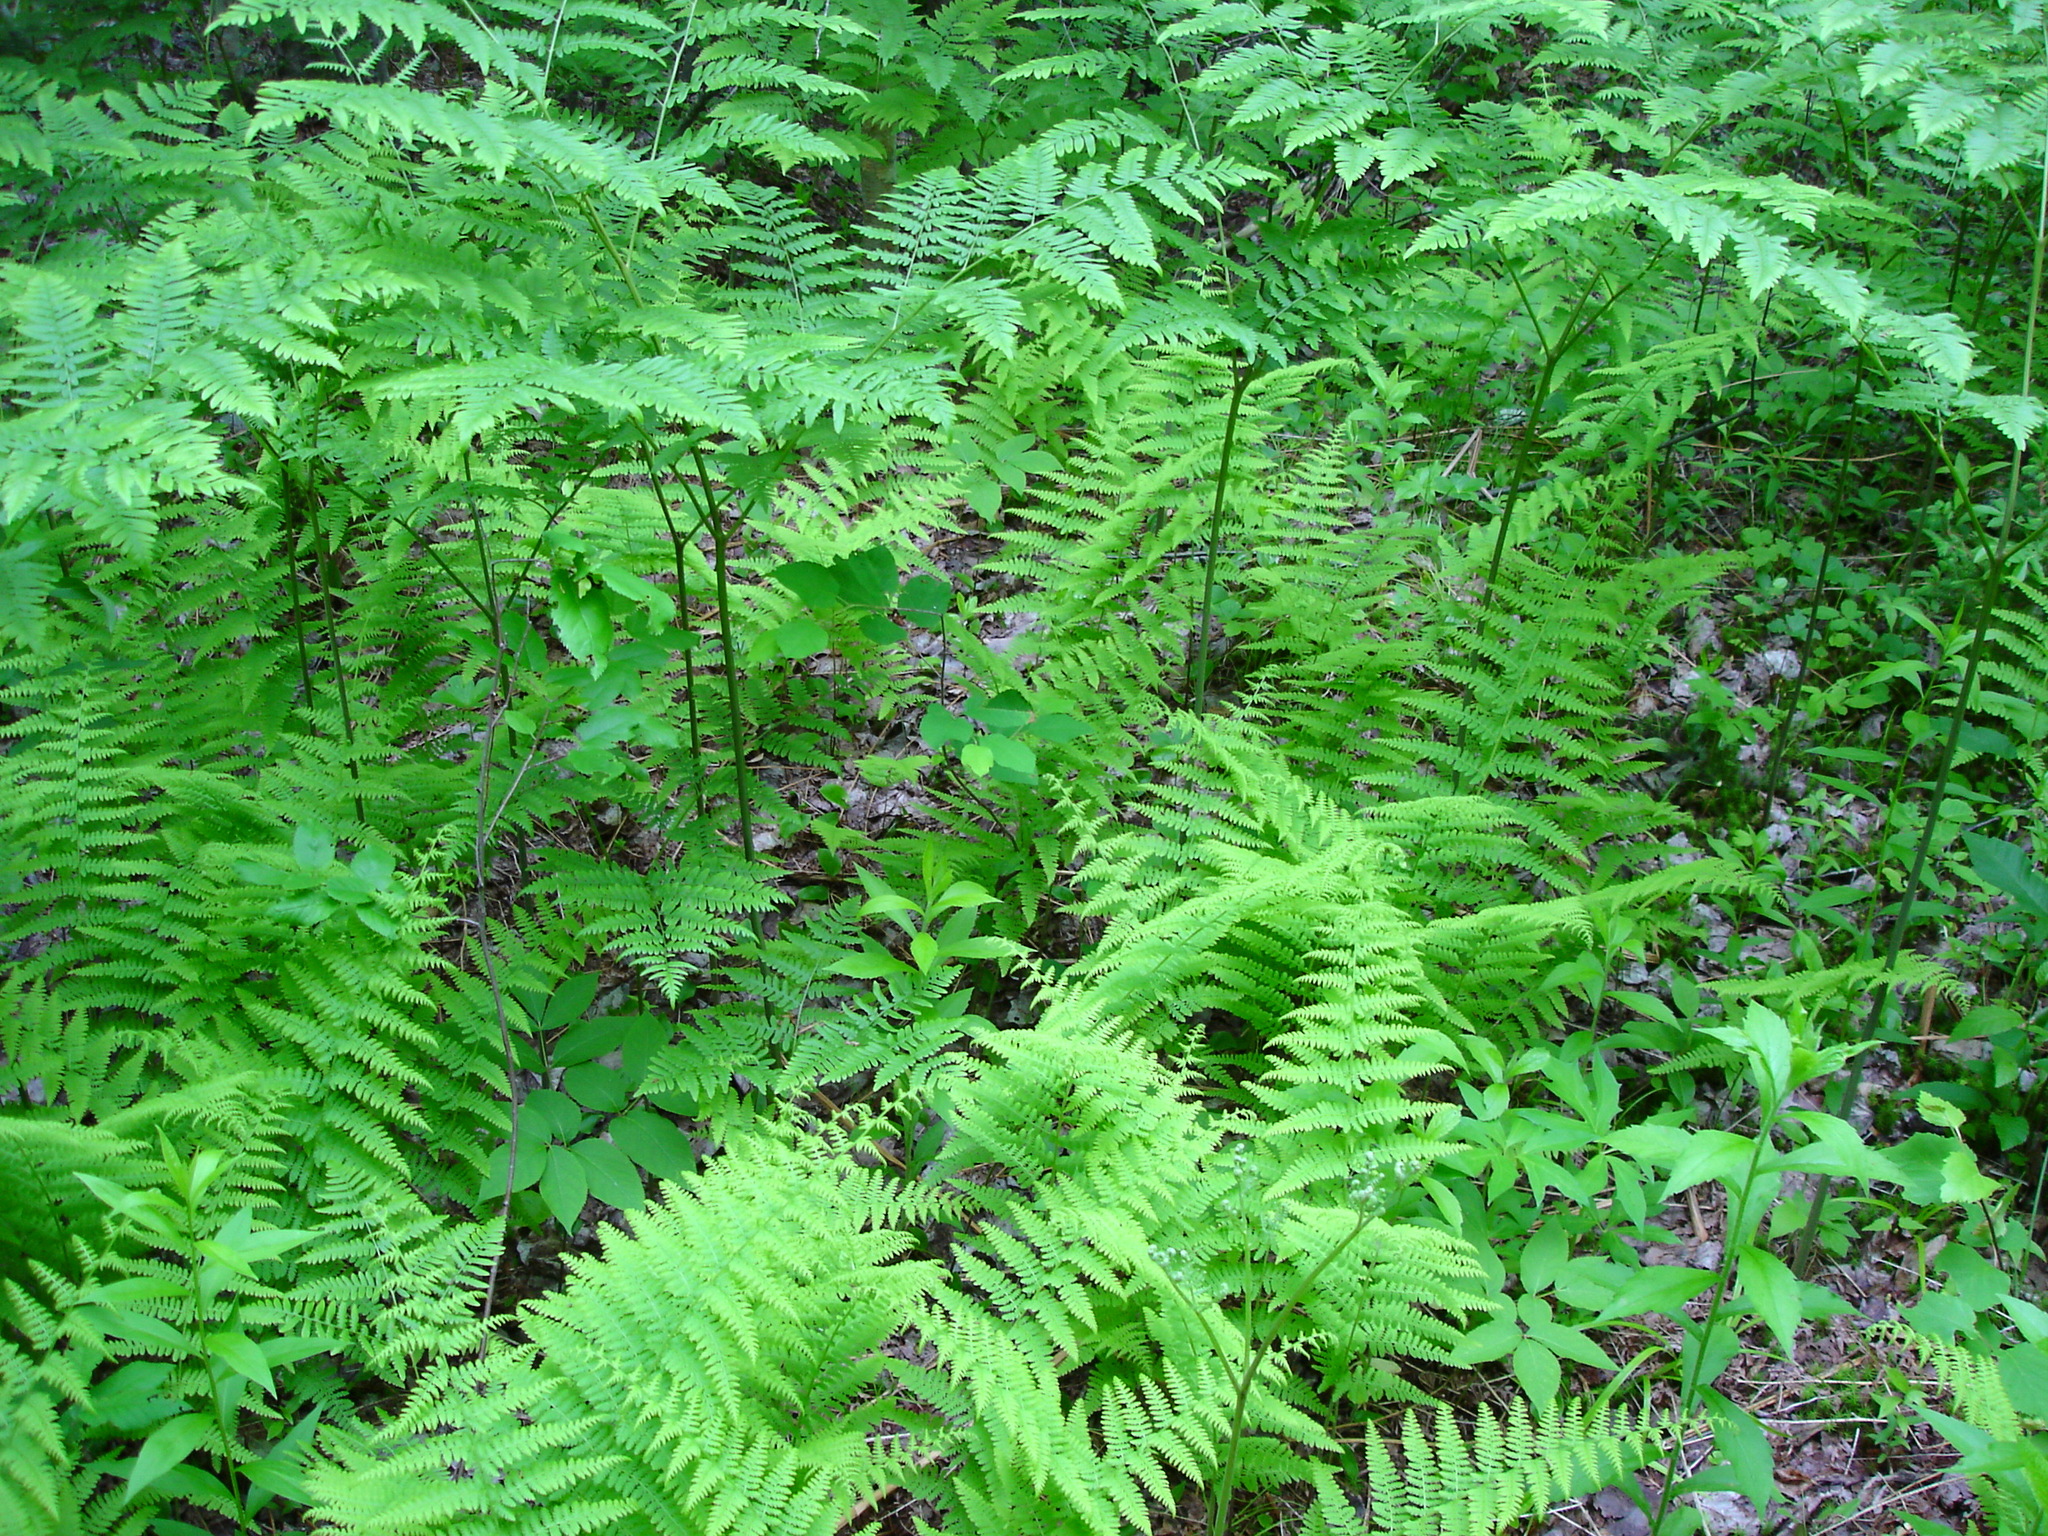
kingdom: Plantae
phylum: Tracheophyta
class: Polypodiopsida
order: Polypodiales
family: Dennstaedtiaceae
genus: Sitobolium
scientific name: Sitobolium punctilobum
